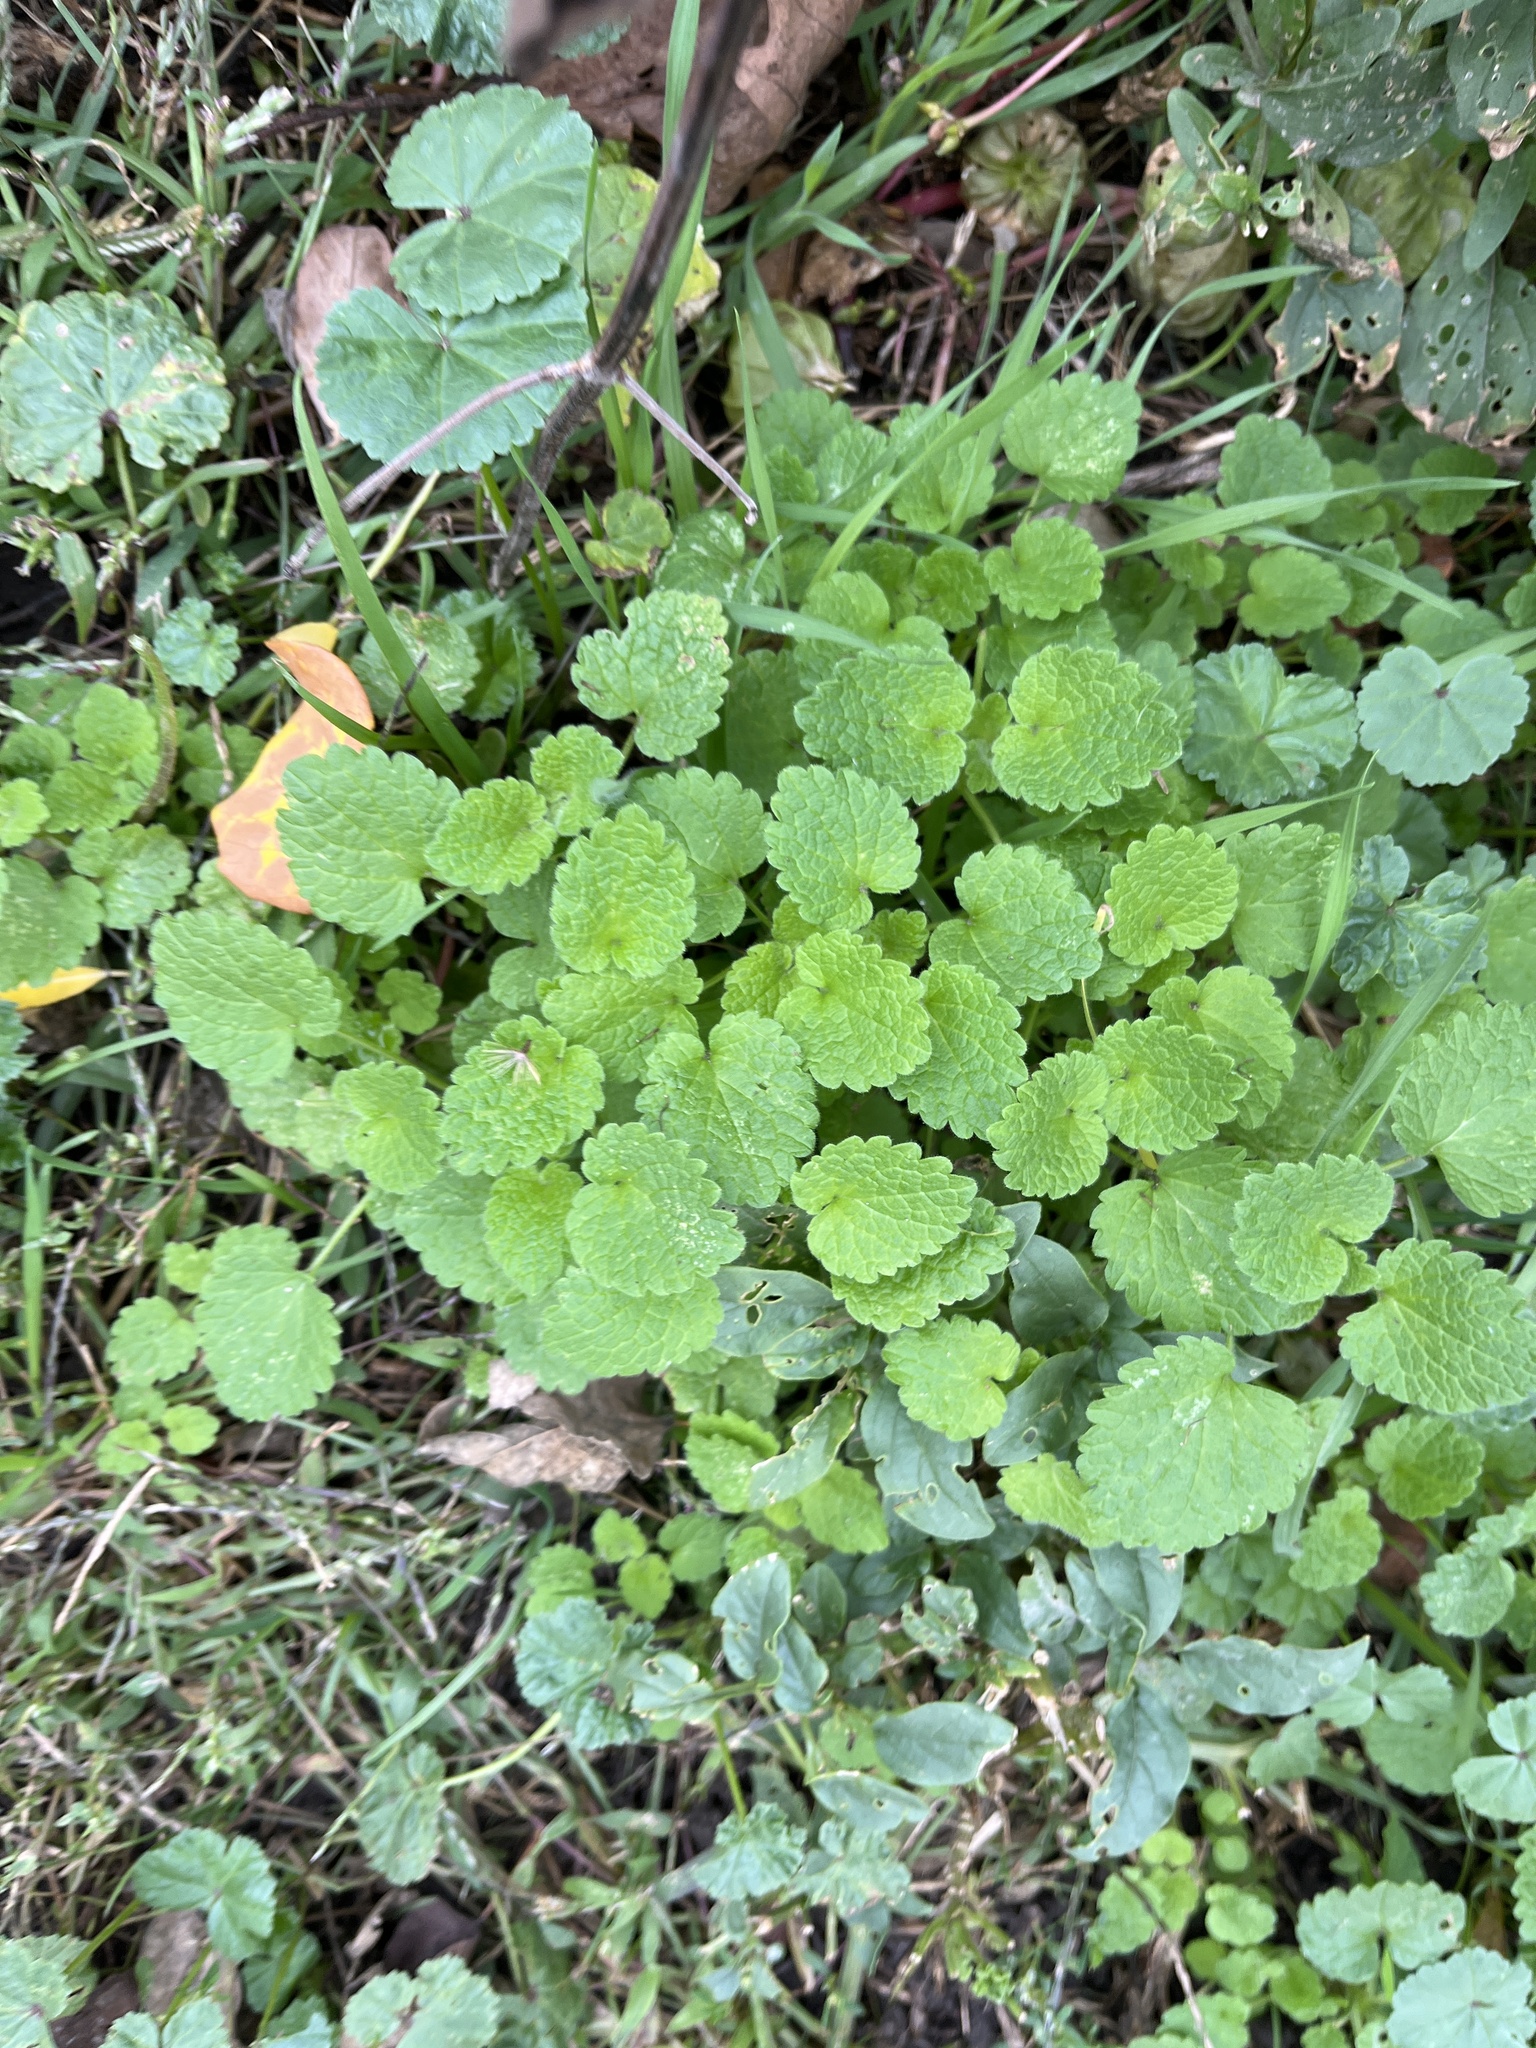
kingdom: Plantae
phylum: Tracheophyta
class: Magnoliopsida
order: Lamiales
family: Lamiaceae
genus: Lamium
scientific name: Lamium purpureum
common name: Red dead-nettle
